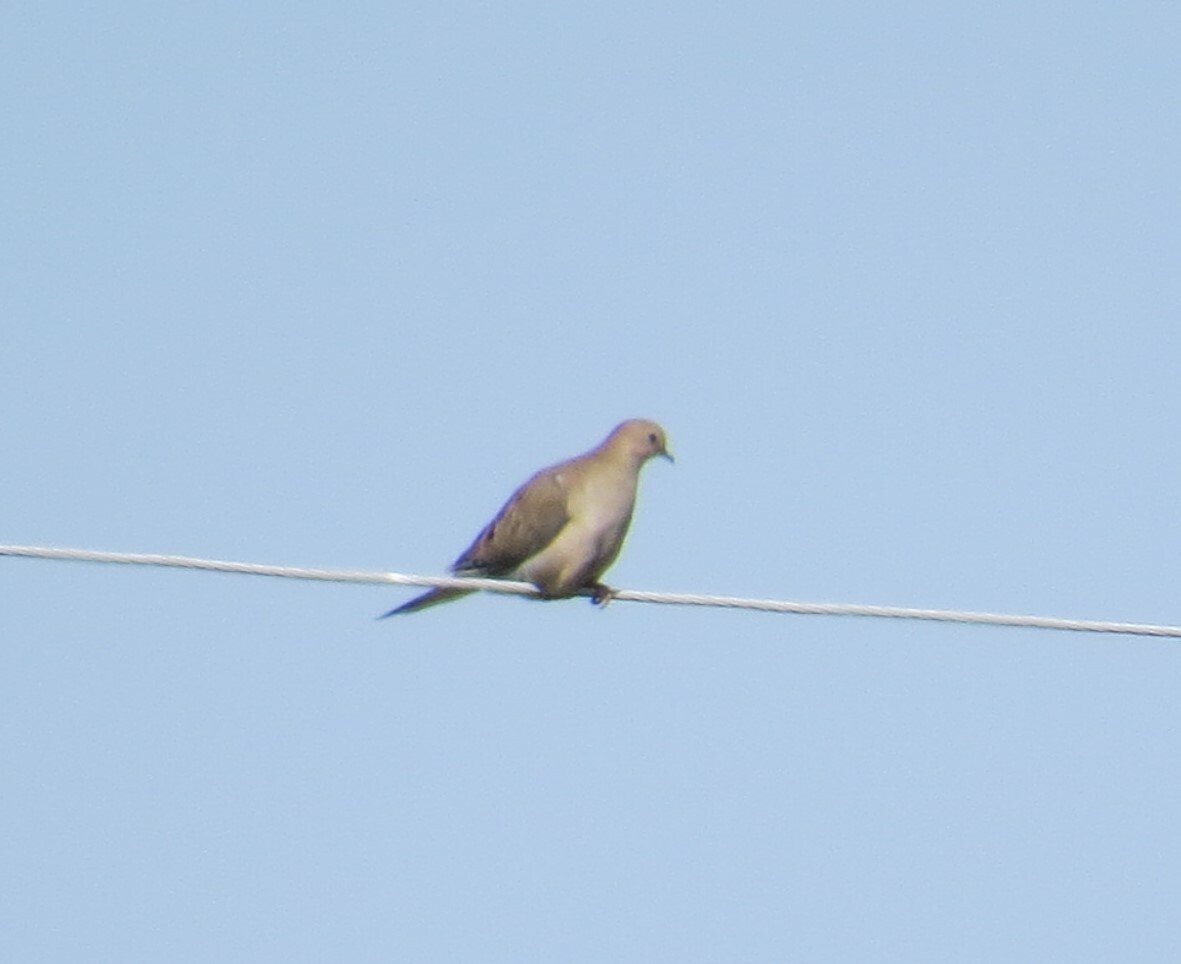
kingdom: Animalia
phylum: Chordata
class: Aves
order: Columbiformes
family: Columbidae
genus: Zenaida
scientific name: Zenaida macroura
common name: Mourning dove
